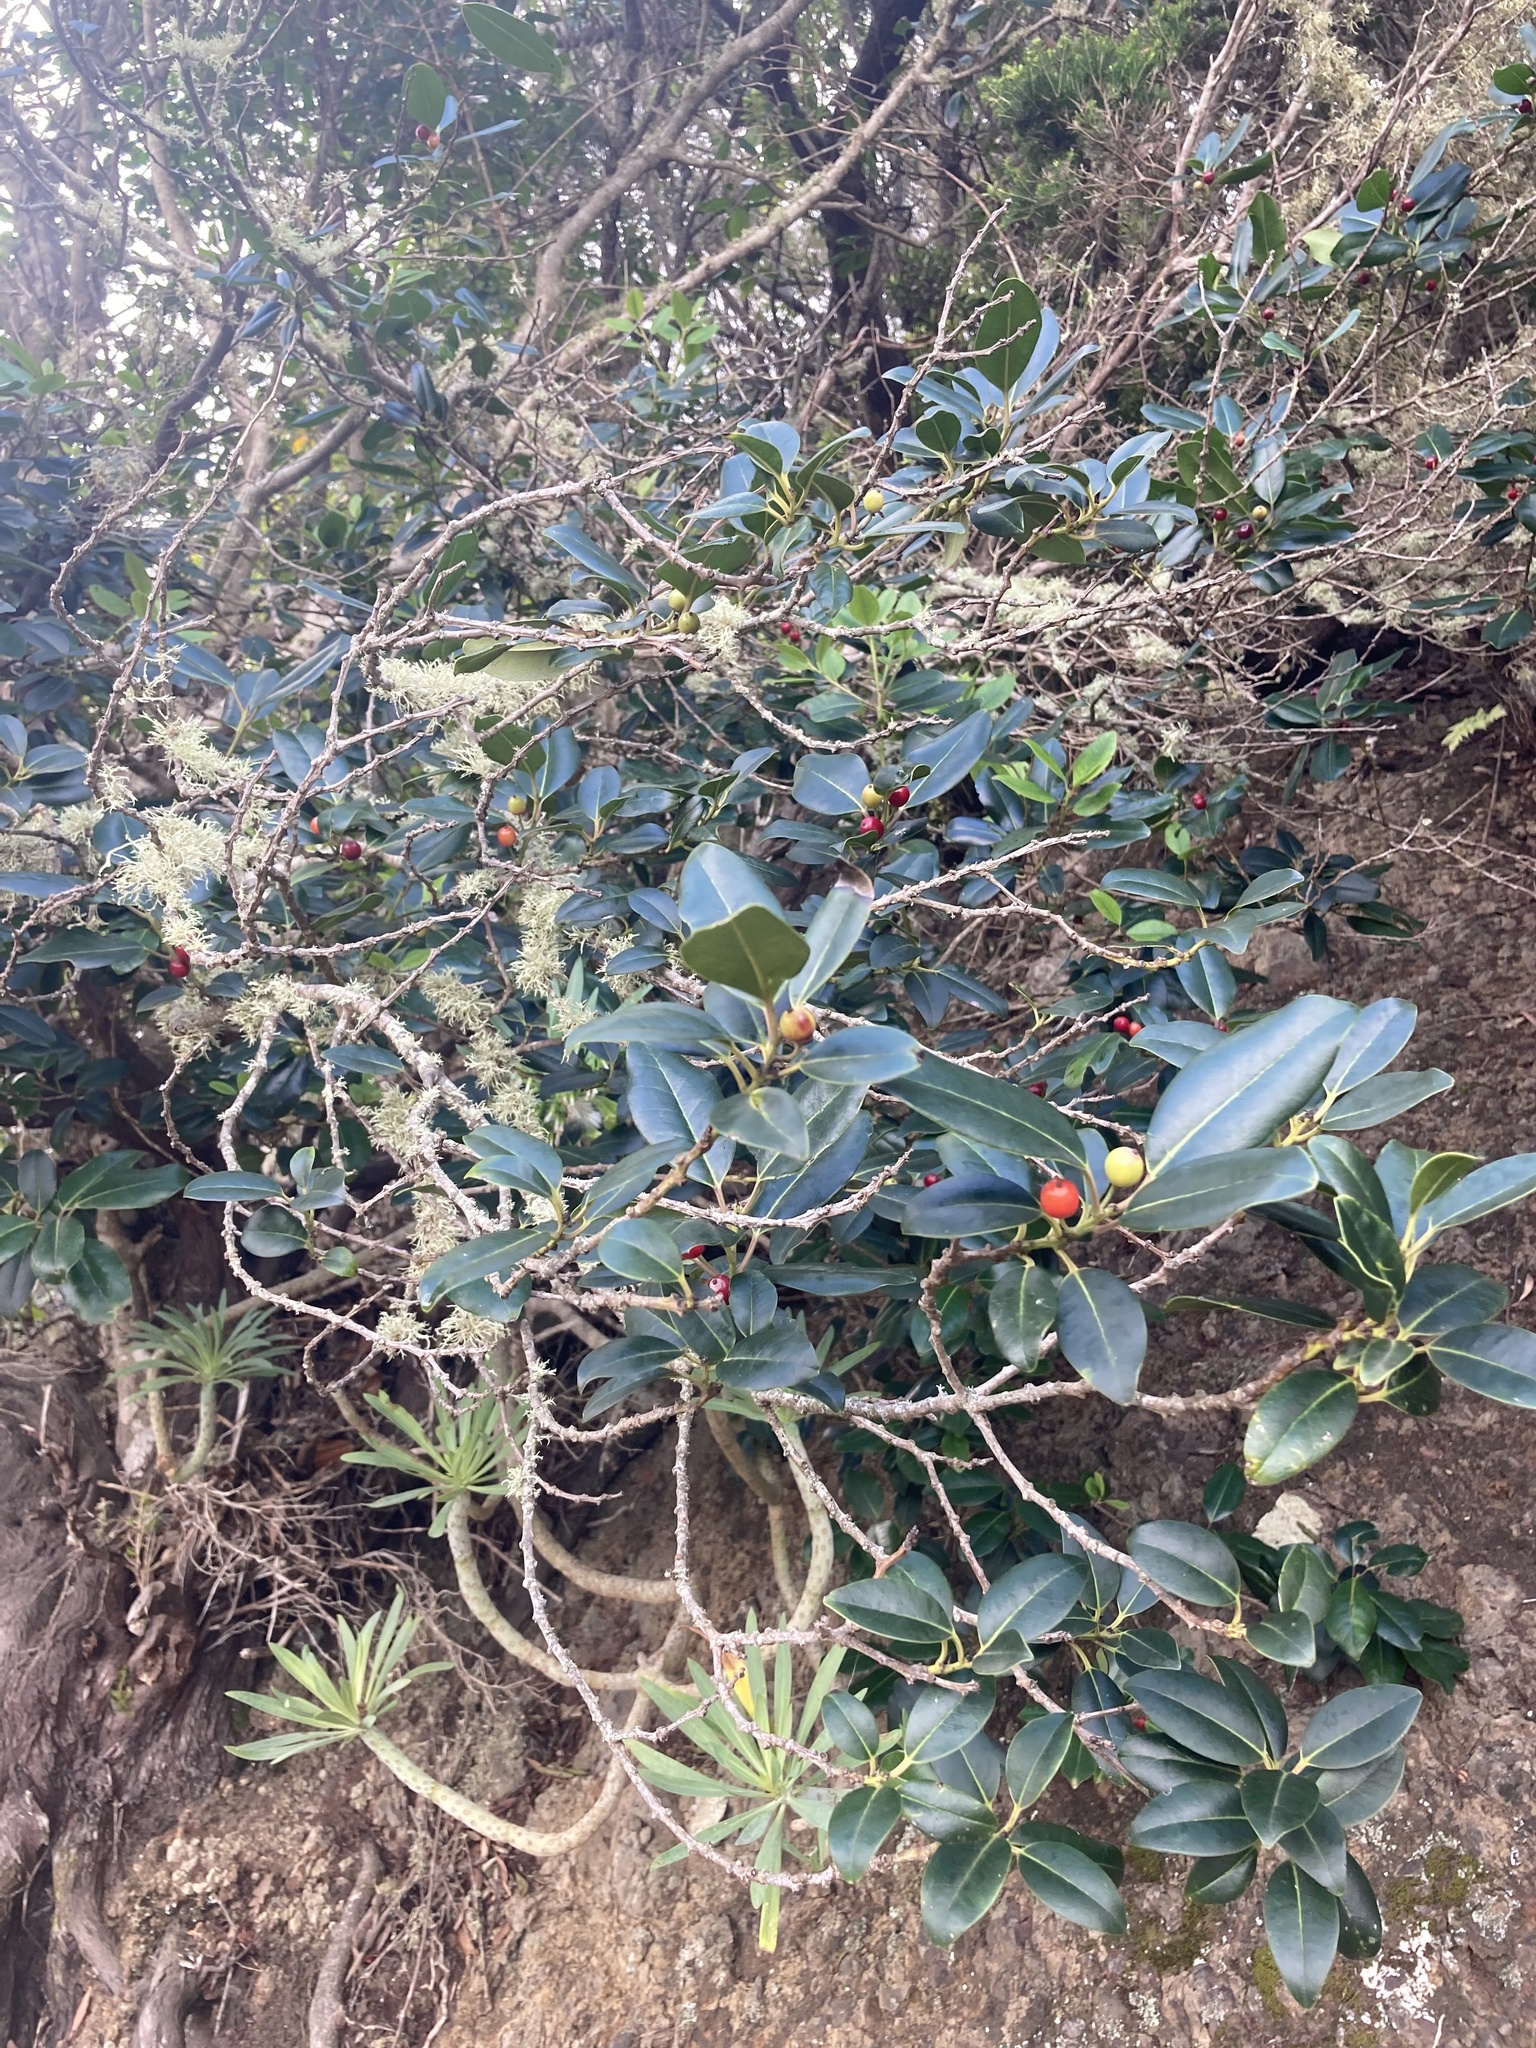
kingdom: Plantae
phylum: Tracheophyta
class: Magnoliopsida
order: Aquifoliales
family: Aquifoliaceae
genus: Ilex
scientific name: Ilex canariensis
